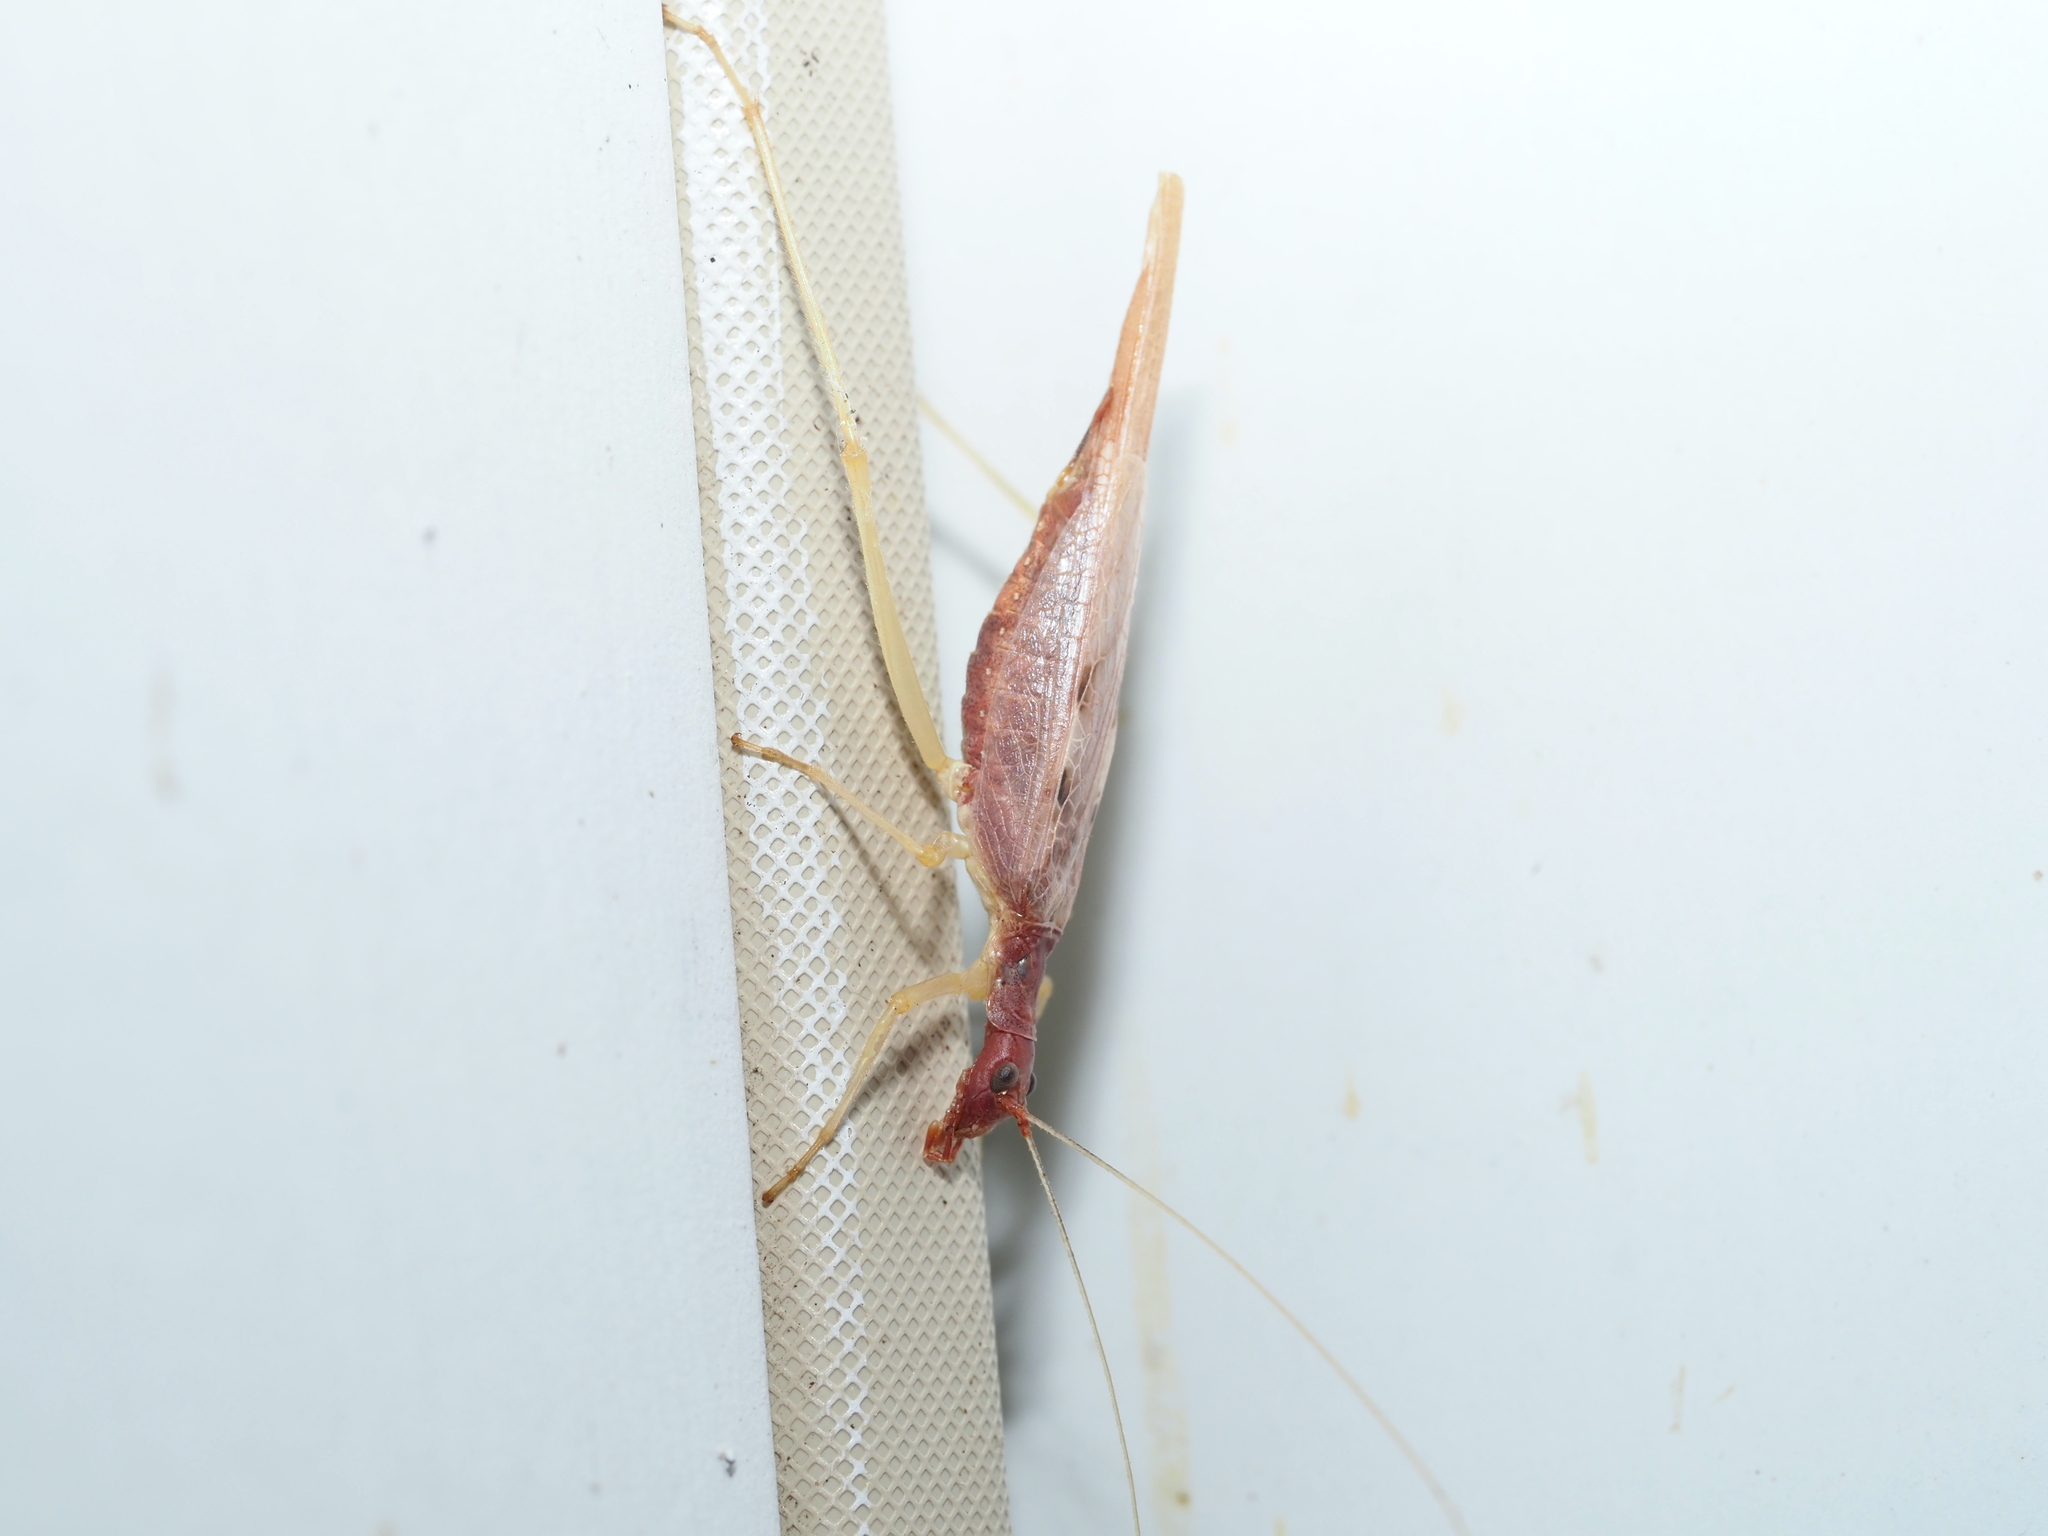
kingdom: Animalia
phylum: Arthropoda
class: Insecta
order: Orthoptera
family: Gryllidae
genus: Neoxabea
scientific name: Neoxabea bipunctata
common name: Two-spotted tree cricket
